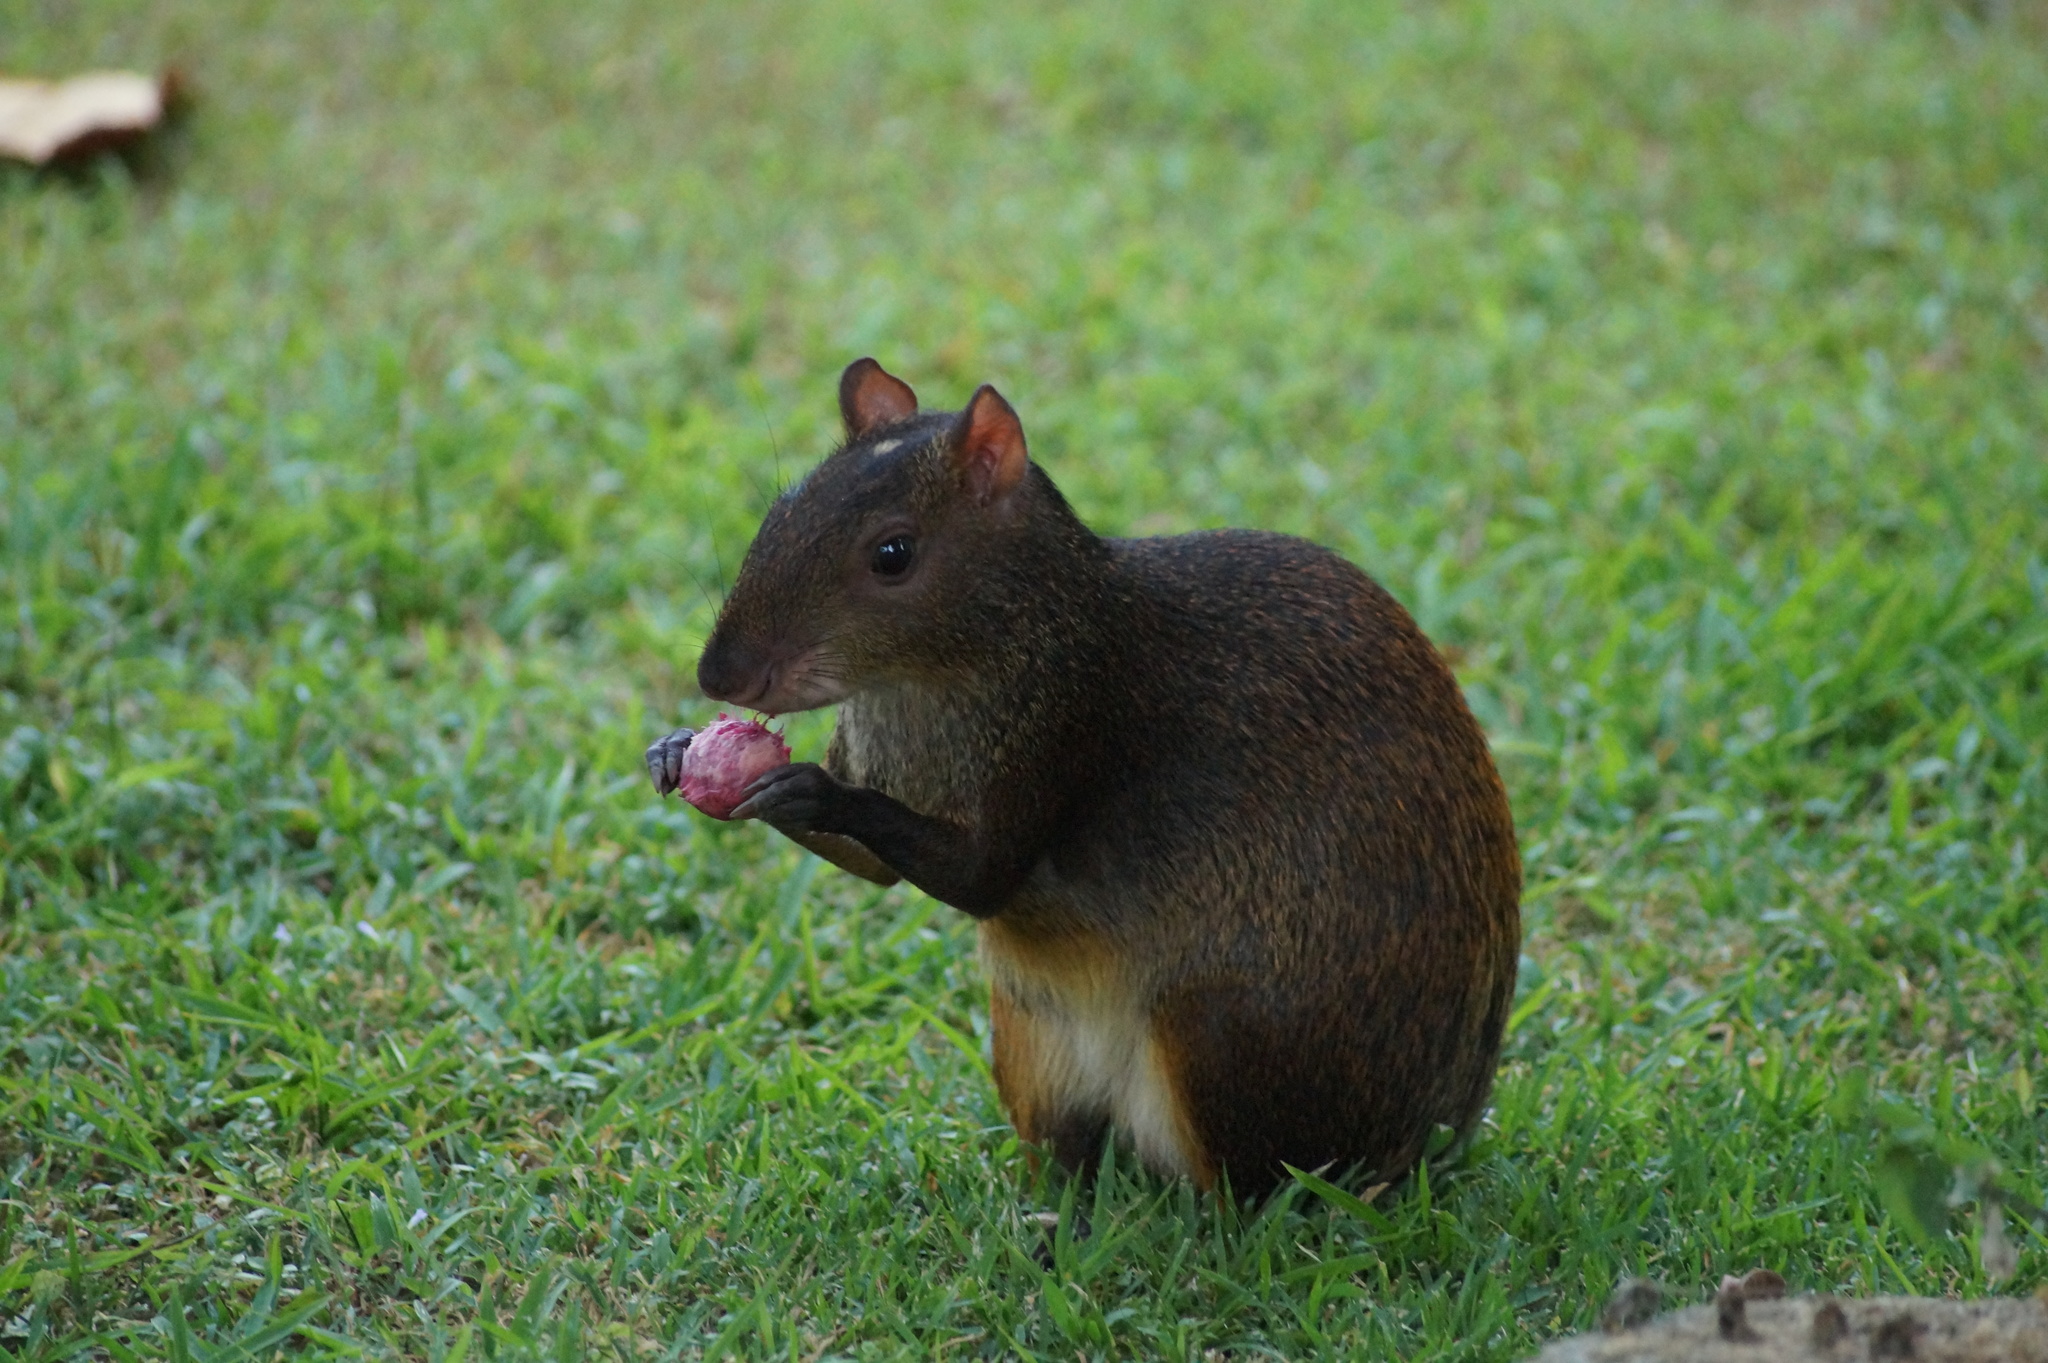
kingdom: Animalia
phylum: Chordata
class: Mammalia
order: Rodentia
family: Dasyproctidae
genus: Dasyprocta
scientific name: Dasyprocta punctata
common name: Central american agouti
